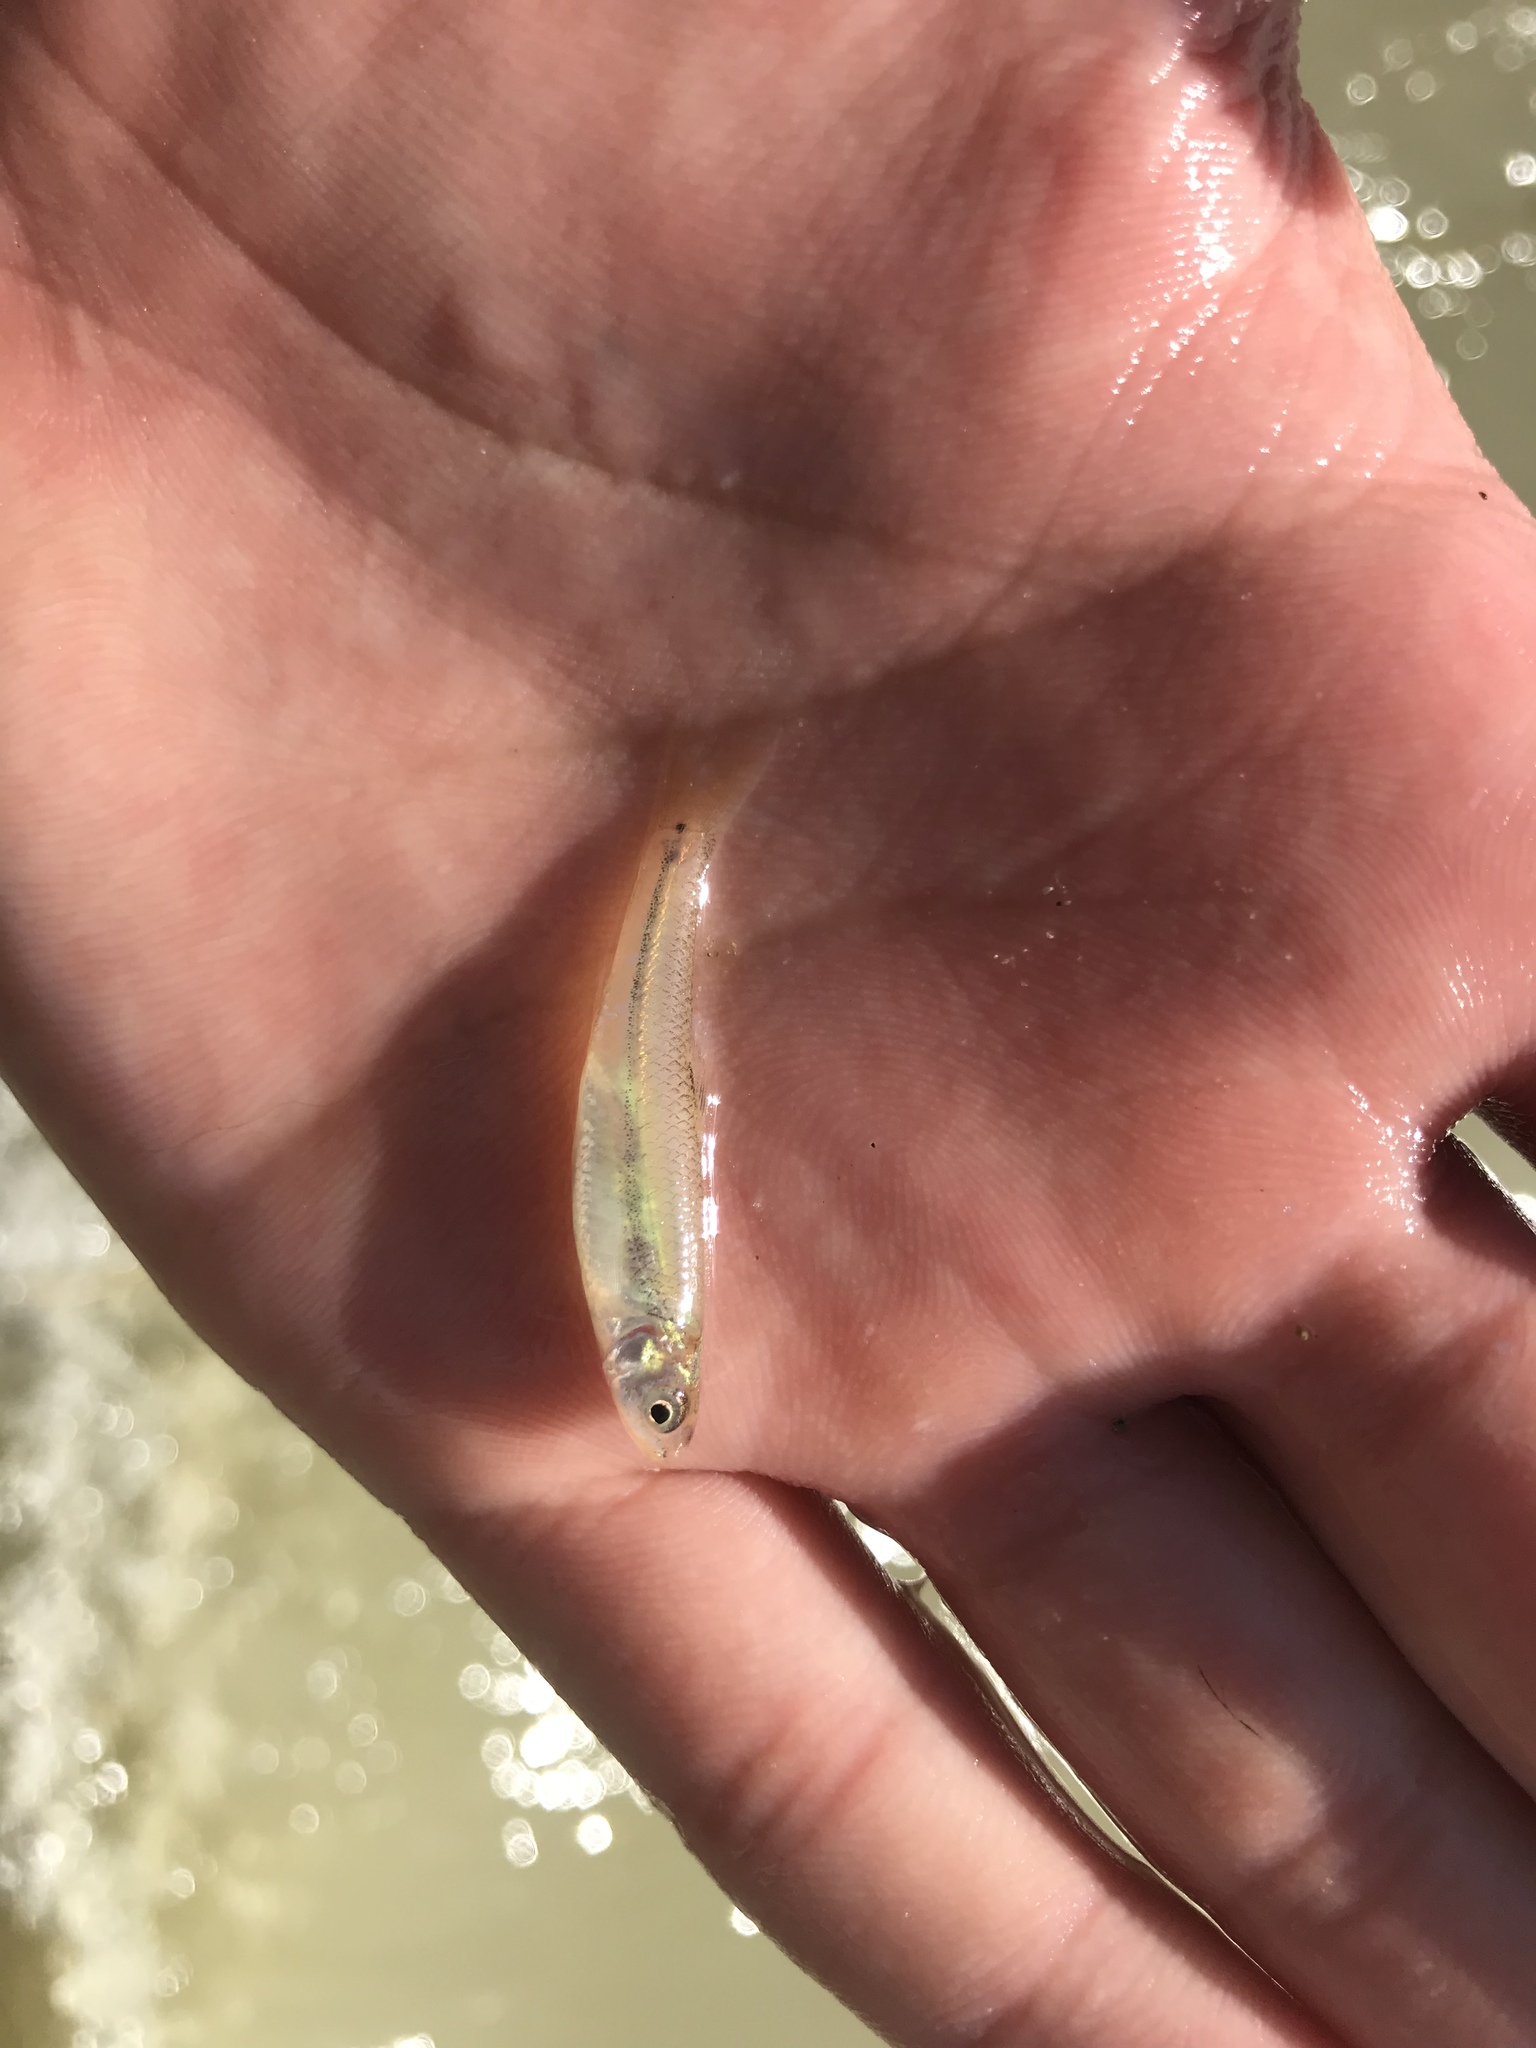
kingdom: Animalia
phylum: Chordata
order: Cypriniformes
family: Cyprinidae
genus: Pimephales
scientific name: Pimephales vigilax
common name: Bullhead minnow
